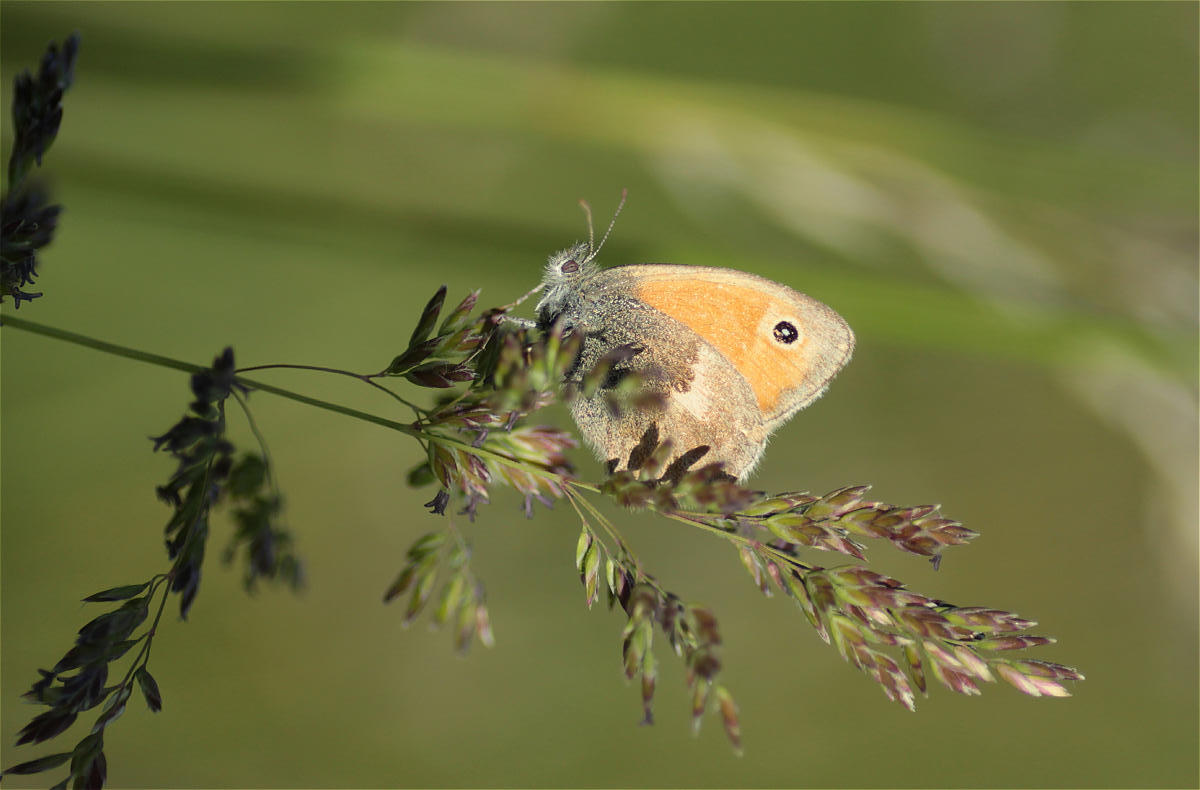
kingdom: Animalia
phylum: Arthropoda
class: Insecta
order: Lepidoptera
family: Nymphalidae
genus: Coenonympha
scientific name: Coenonympha pamphilus
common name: Small heath
